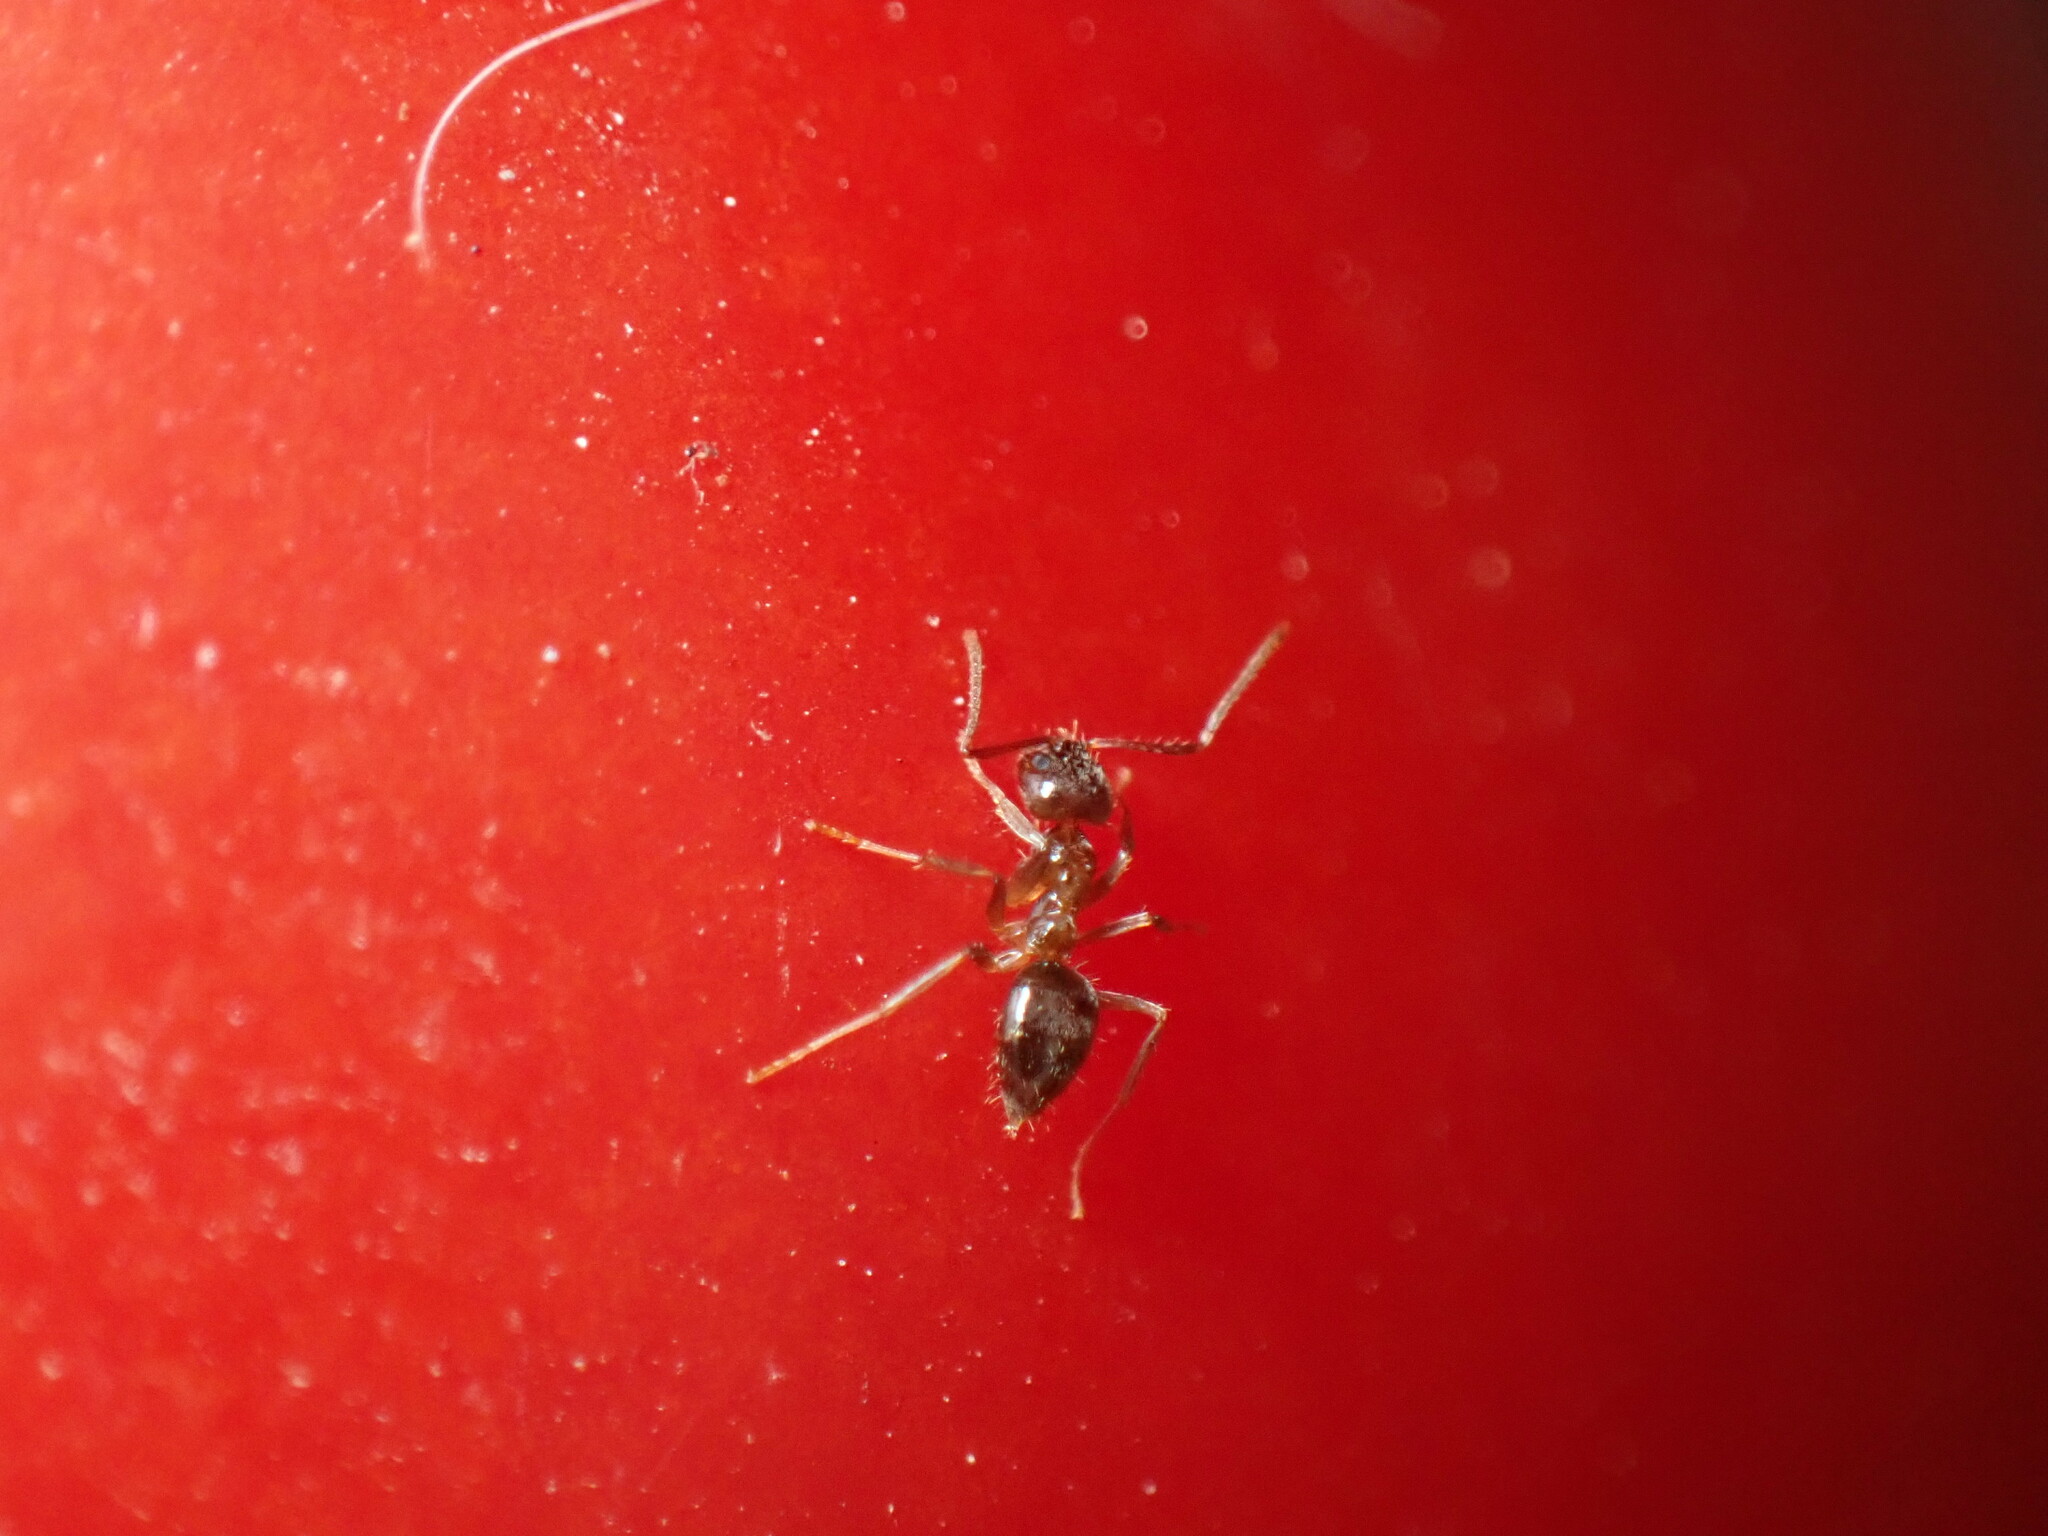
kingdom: Animalia
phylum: Arthropoda
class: Insecta
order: Hymenoptera
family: Formicidae
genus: Paratrechina
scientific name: Paratrechina jaegerskioeldi
